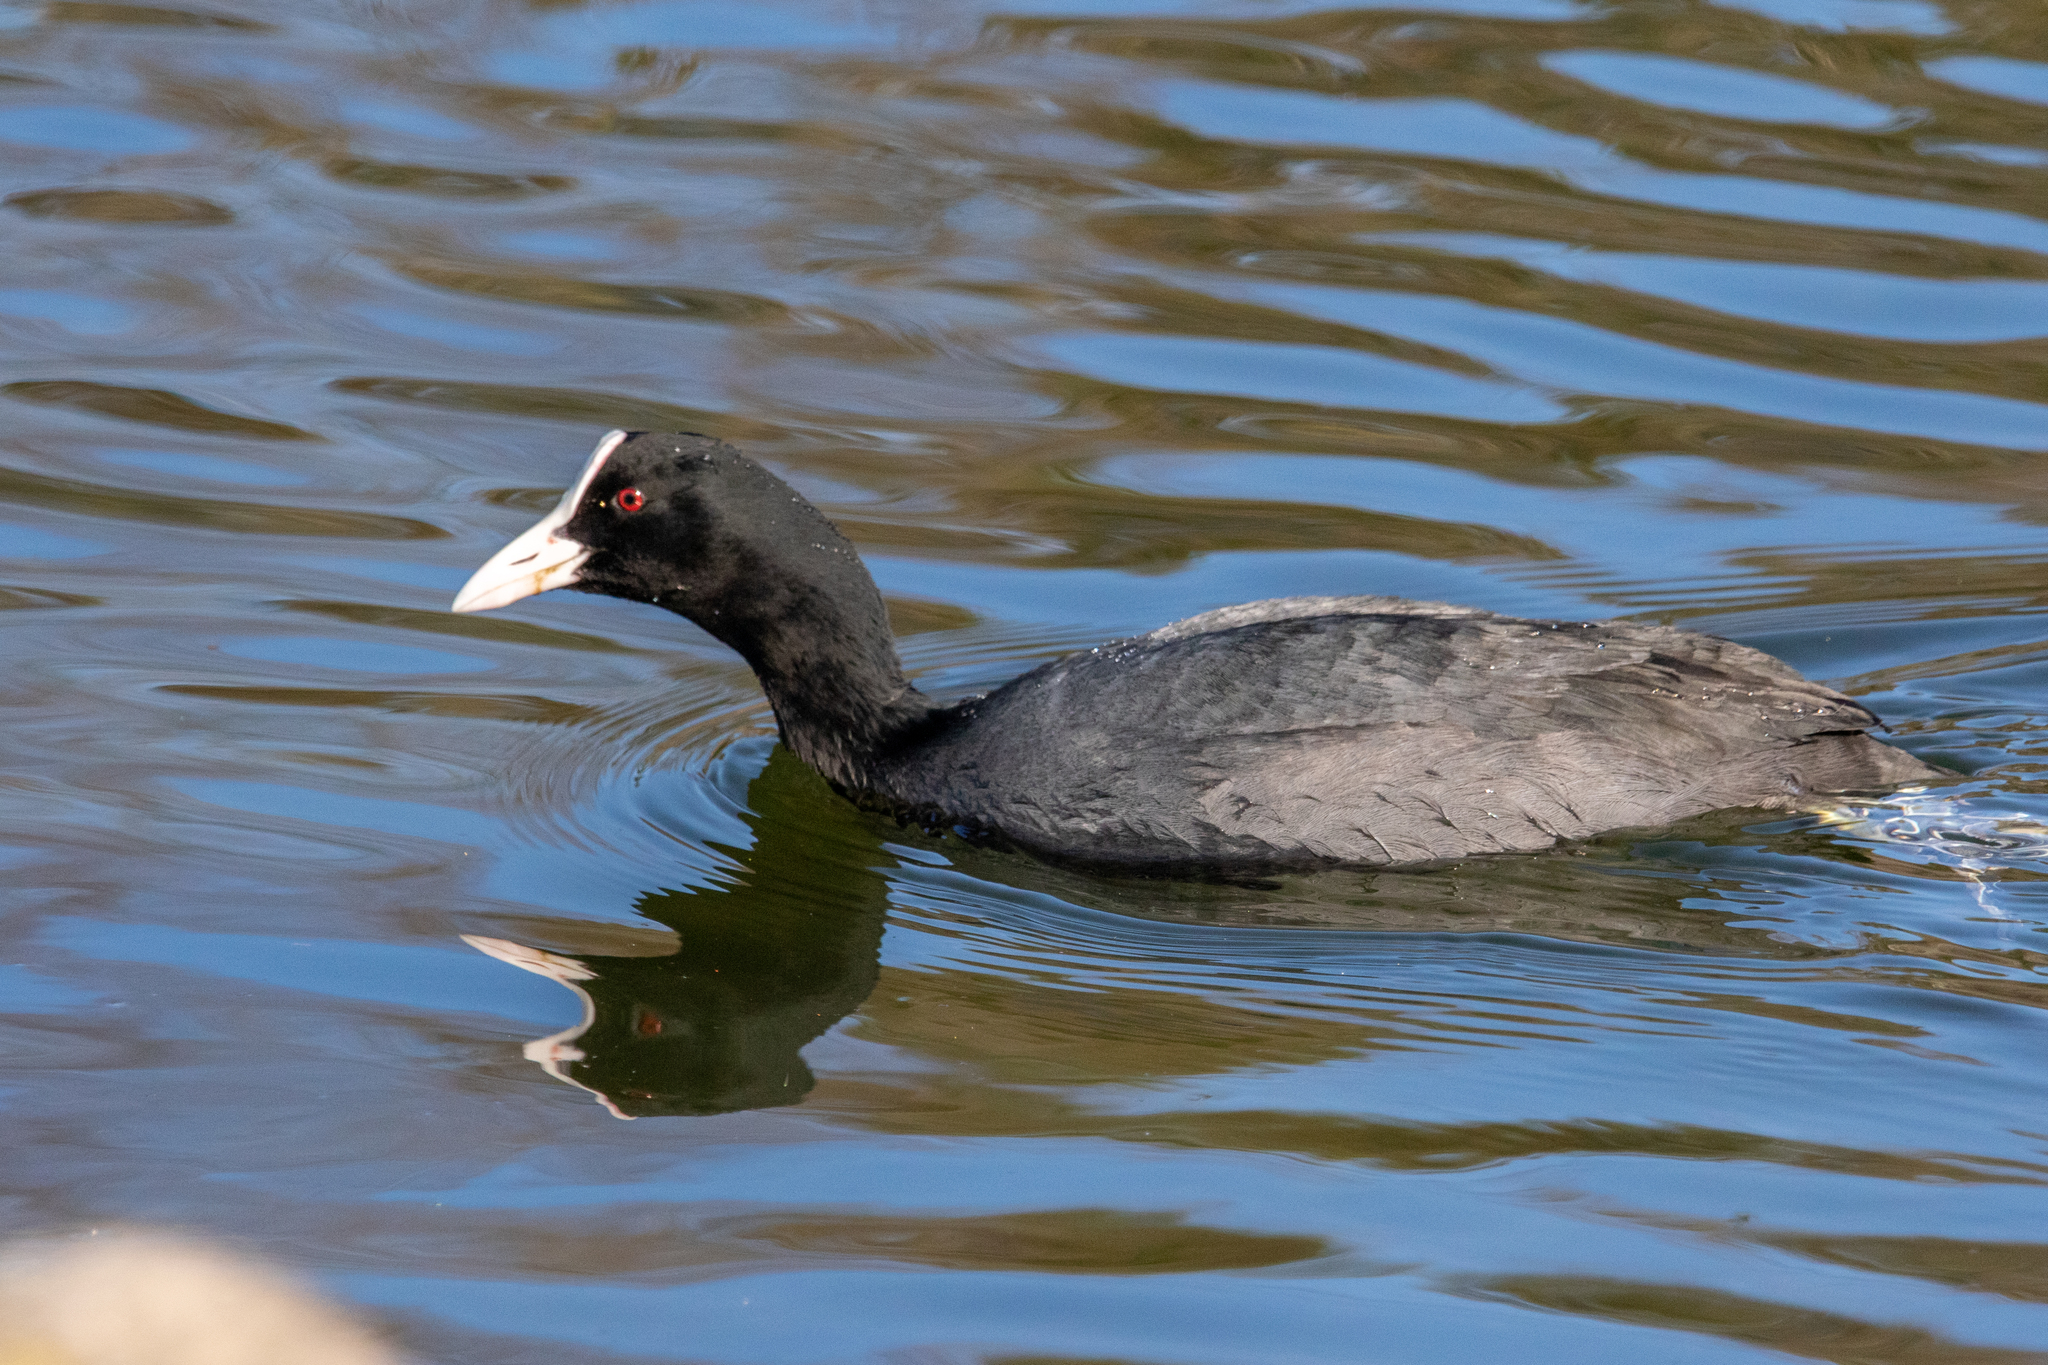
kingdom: Animalia
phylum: Chordata
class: Aves
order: Gruiformes
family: Rallidae
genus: Fulica
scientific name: Fulica atra
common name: Eurasian coot
